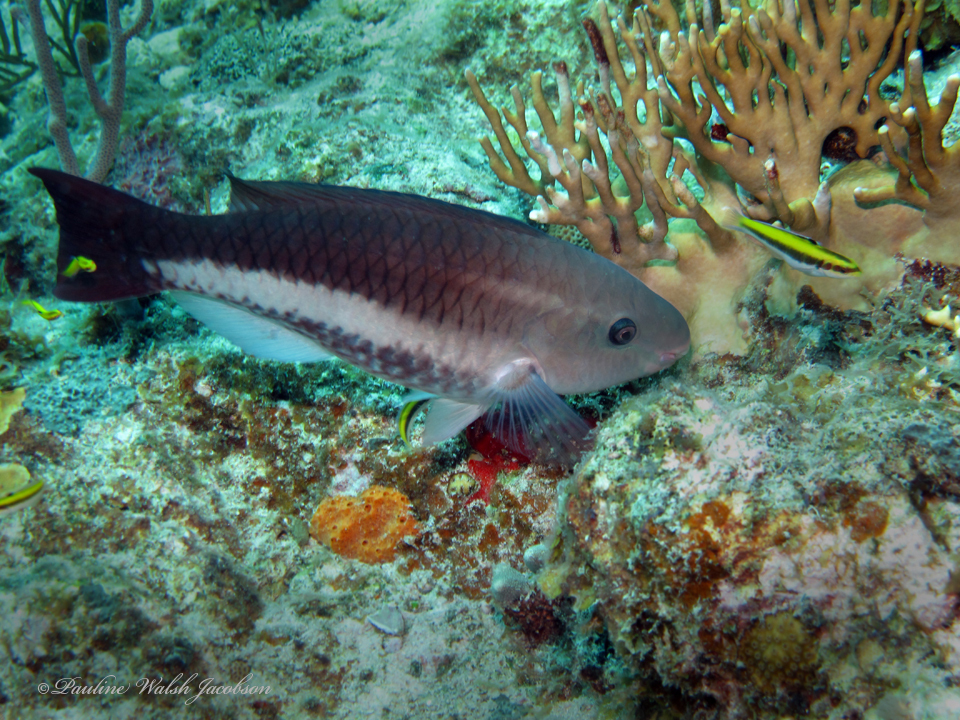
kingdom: Animalia
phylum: Chordata
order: Perciformes
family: Scaridae
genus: Scarus
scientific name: Scarus vetula
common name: Queen parrotfish
